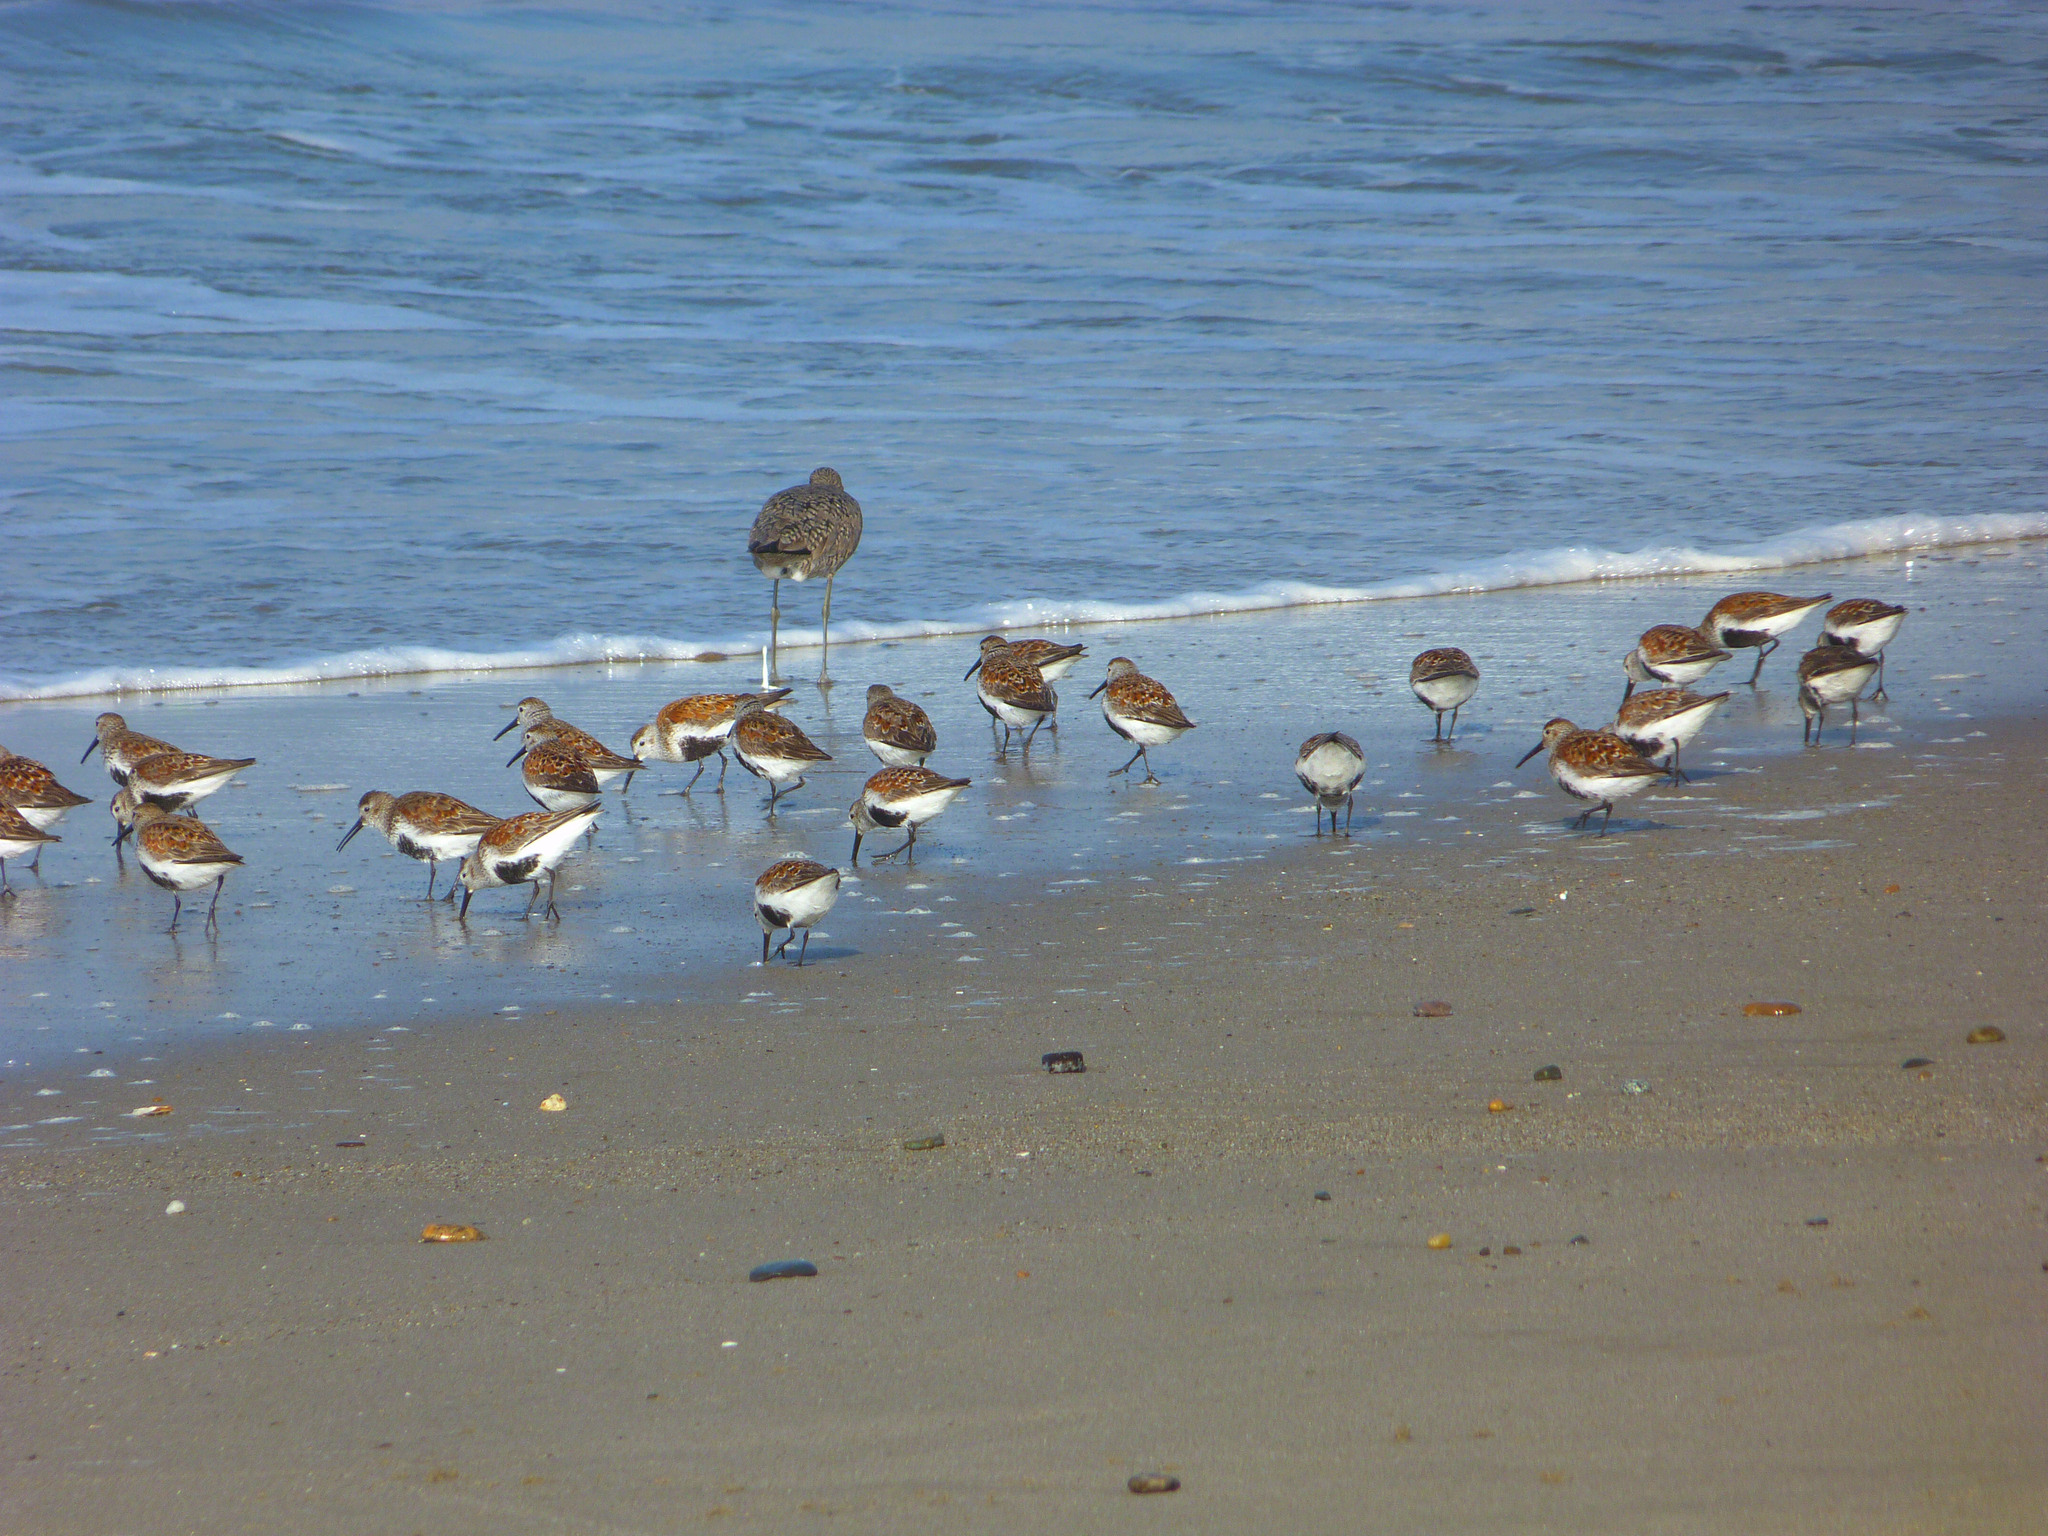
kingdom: Animalia
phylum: Chordata
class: Aves
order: Charadriiformes
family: Scolopacidae
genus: Calidris
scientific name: Calidris alpina
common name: Dunlin
